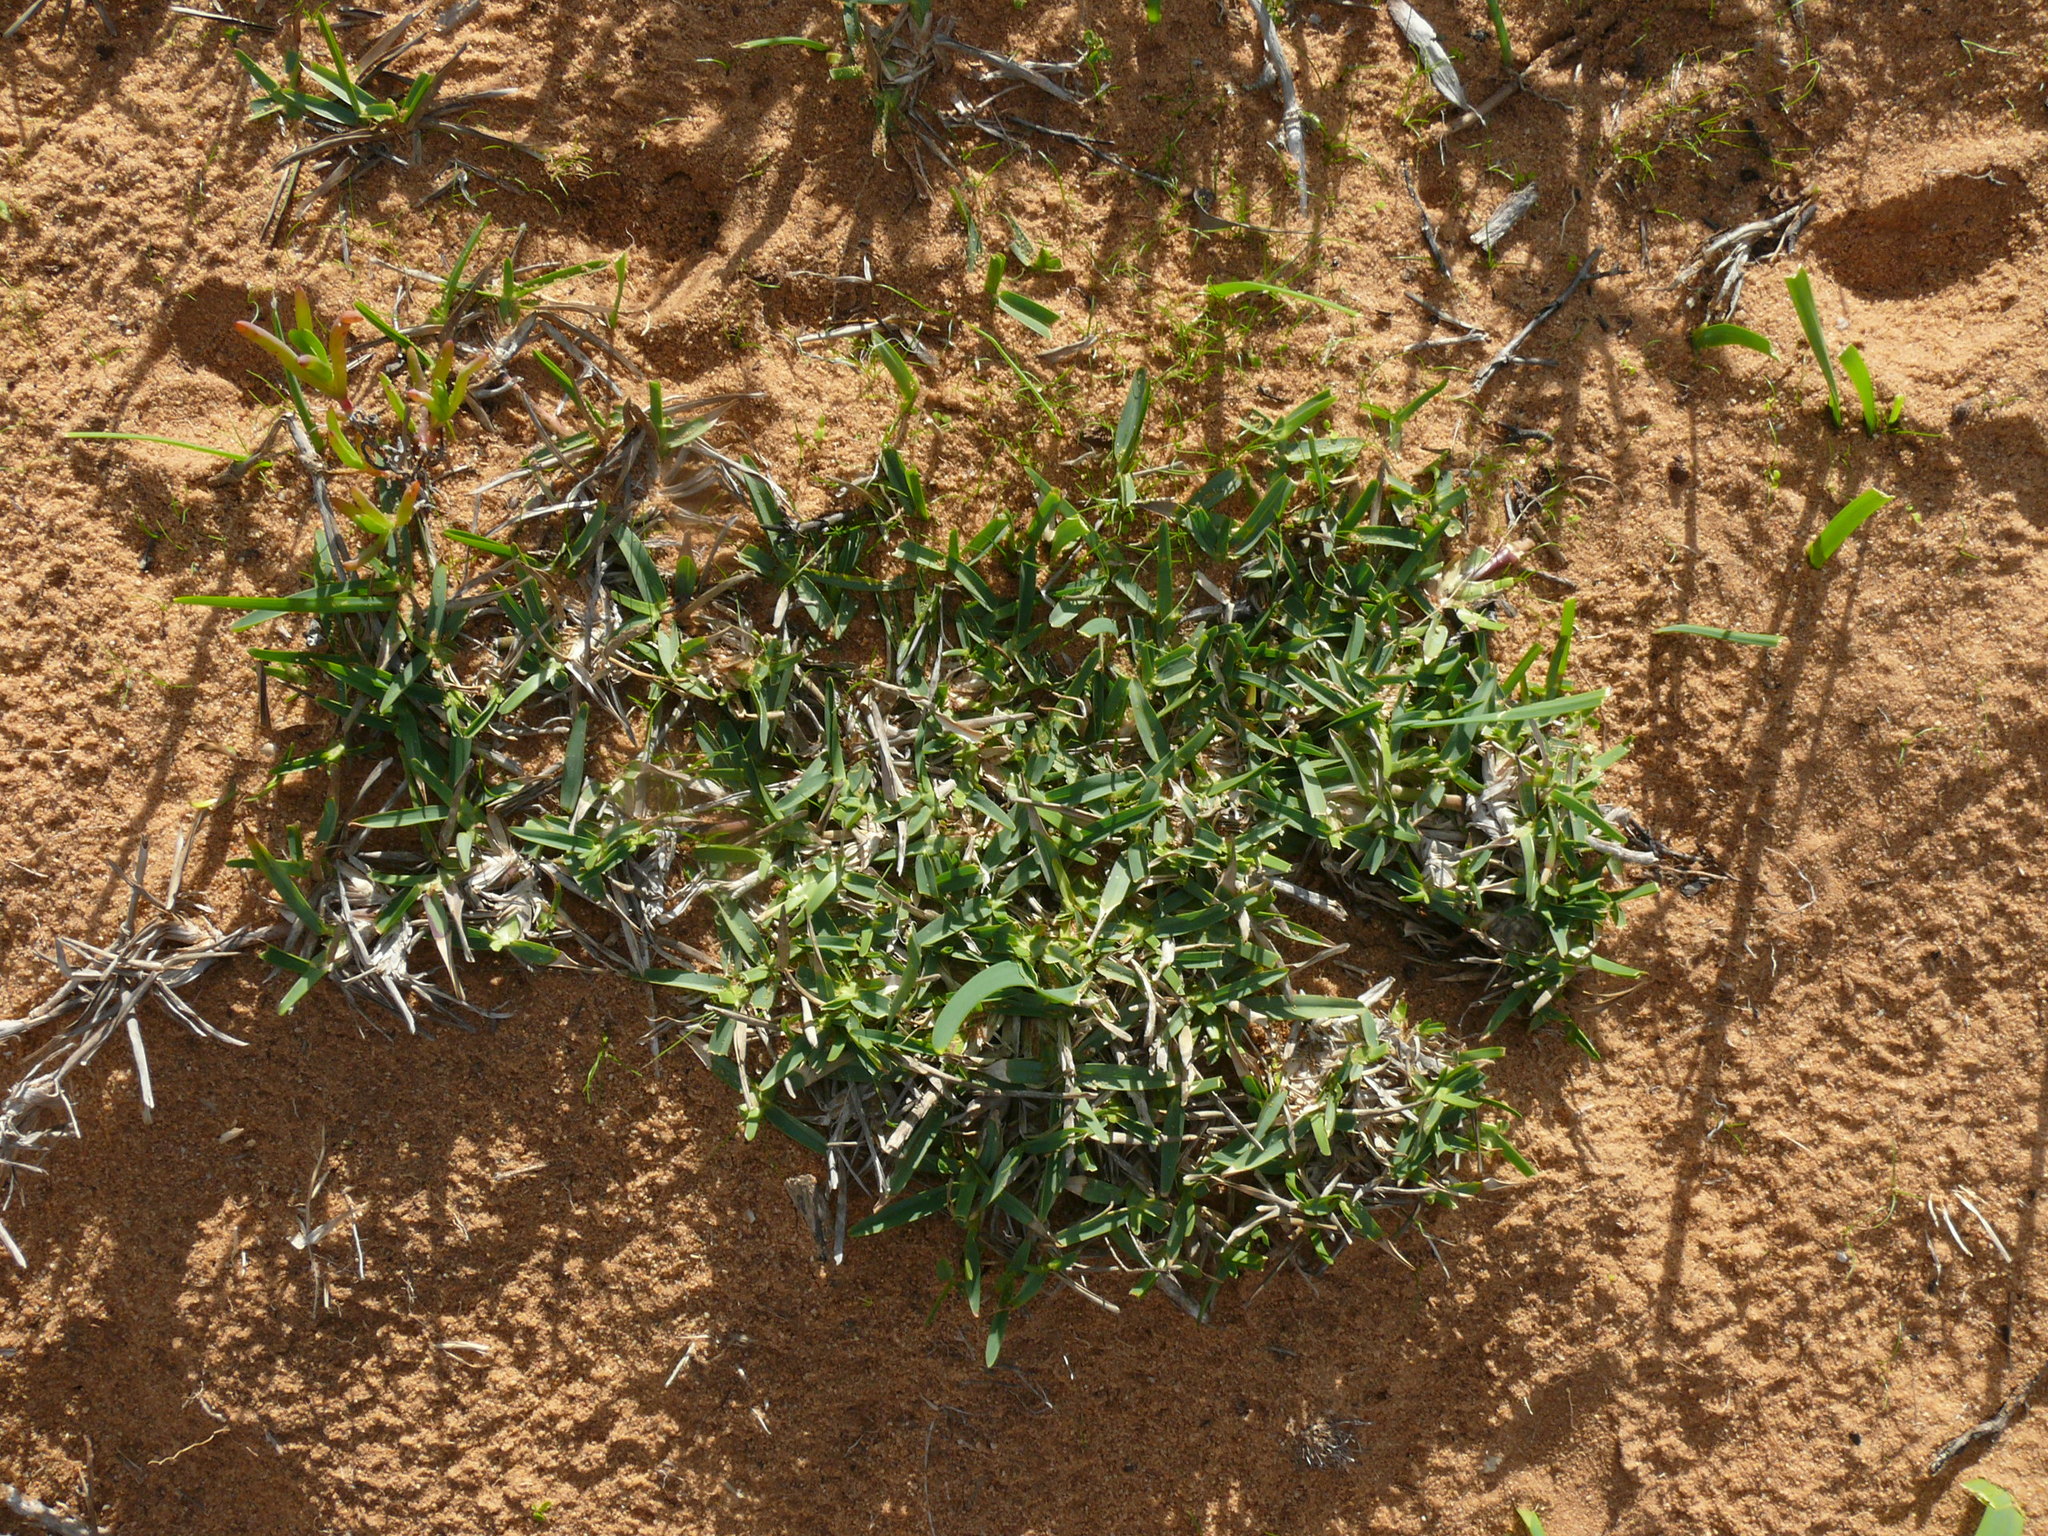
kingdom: Plantae
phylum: Tracheophyta
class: Liliopsida
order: Poales
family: Poaceae
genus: Stenotaphrum
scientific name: Stenotaphrum secundatum
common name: St. augustine grass
